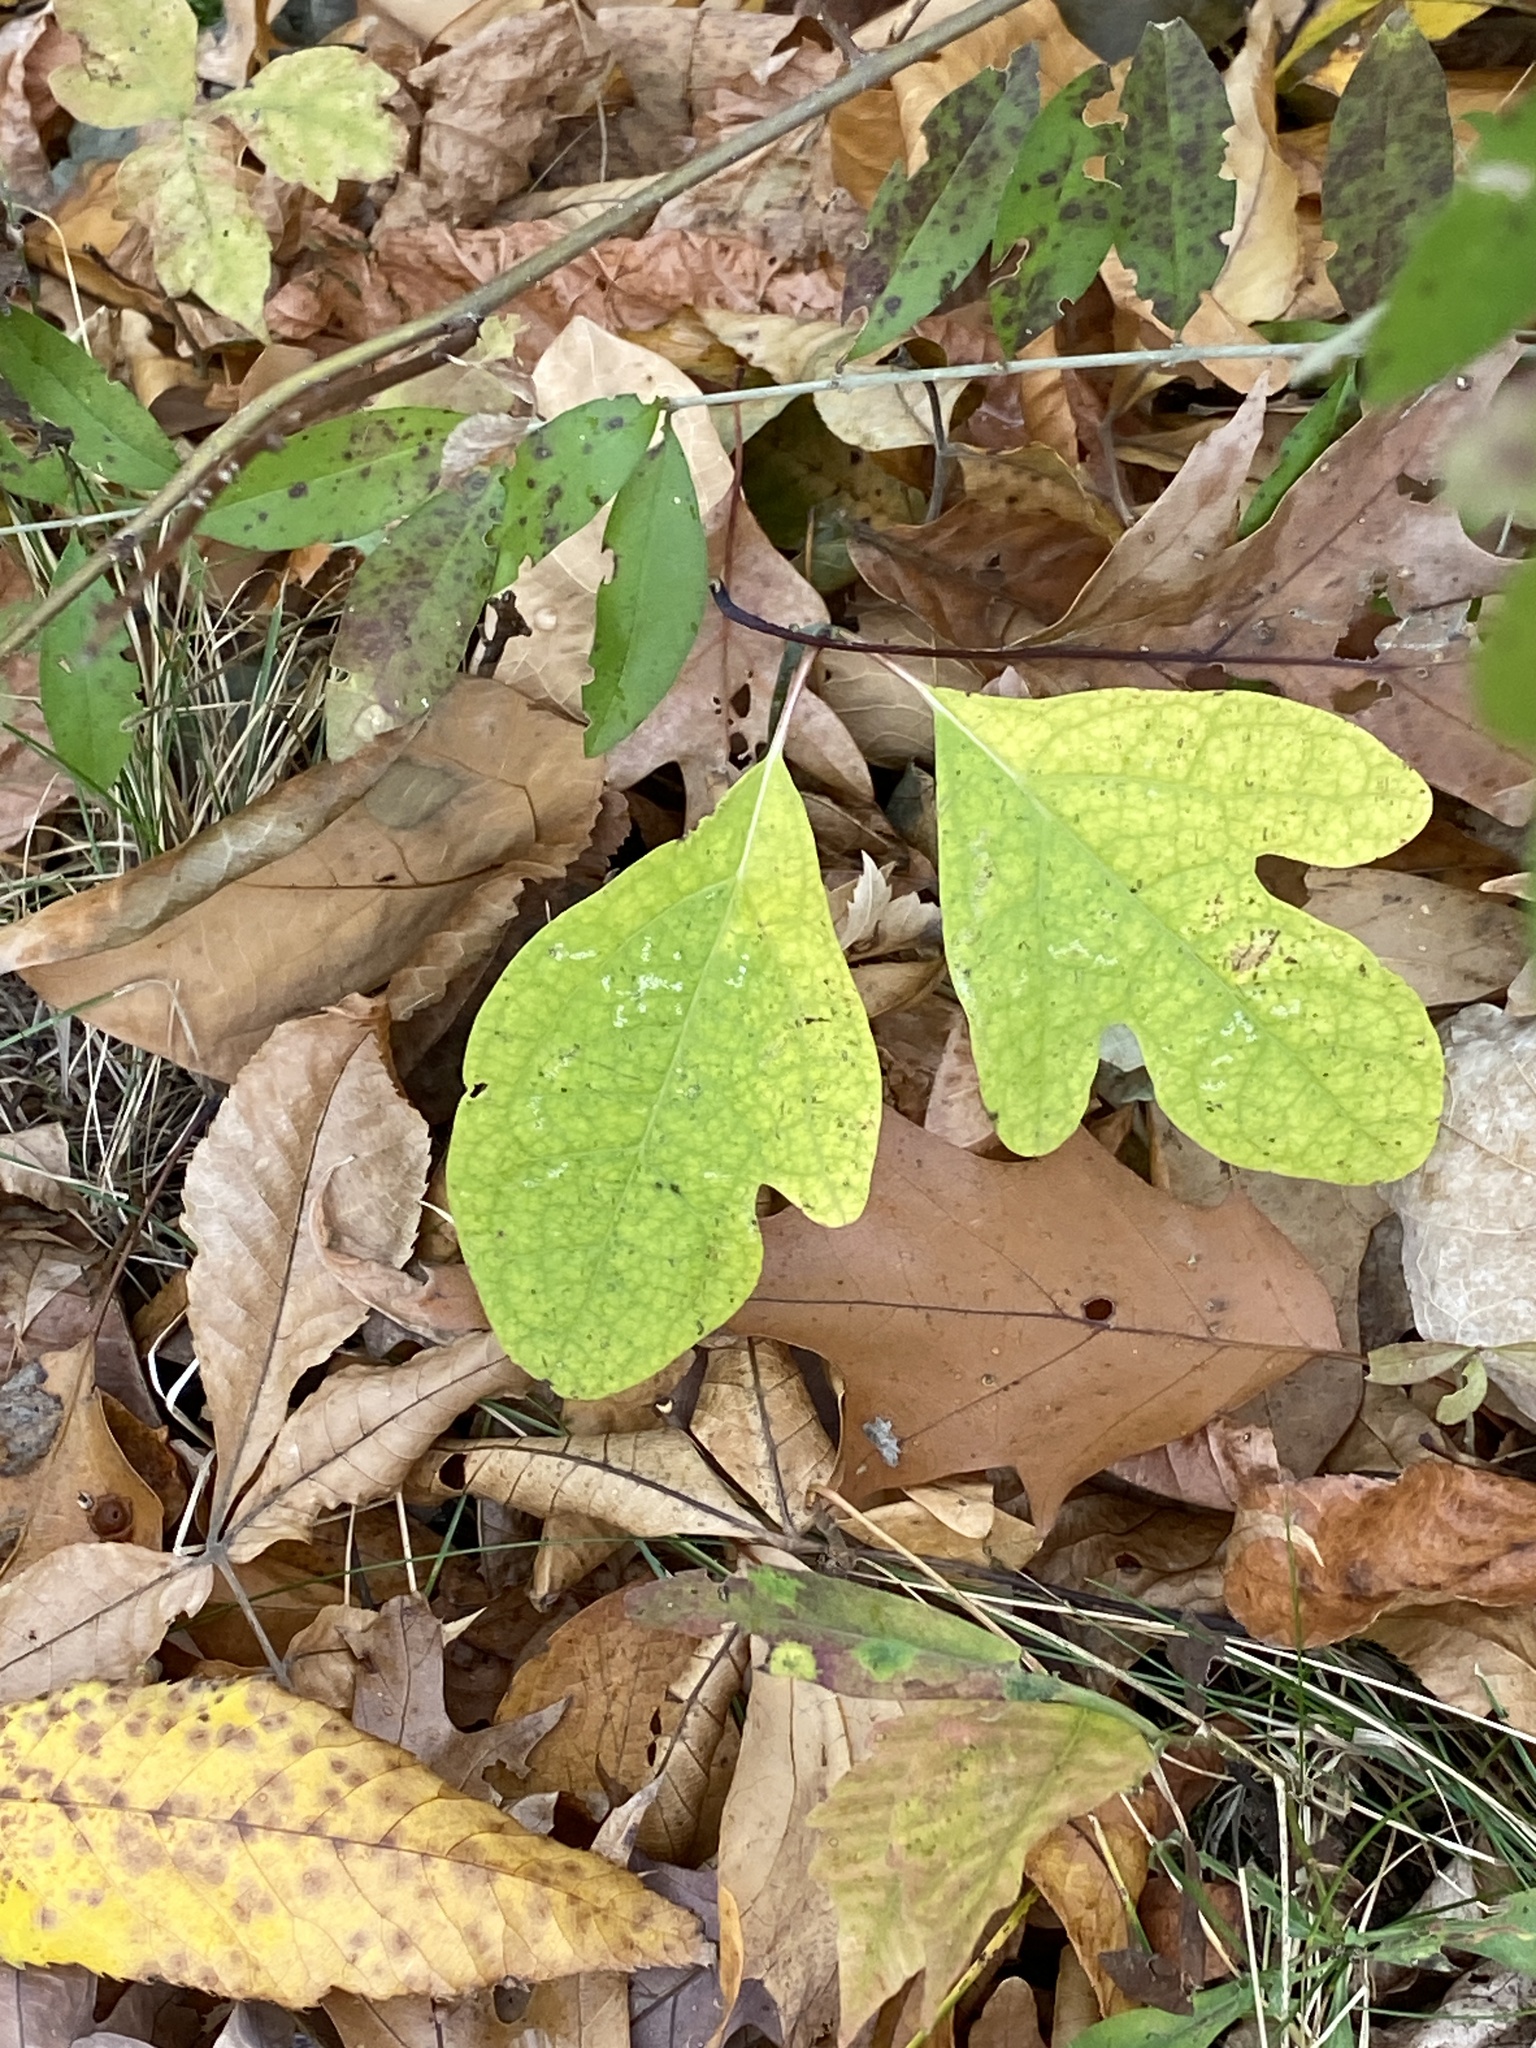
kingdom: Plantae
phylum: Tracheophyta
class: Magnoliopsida
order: Laurales
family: Lauraceae
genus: Sassafras
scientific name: Sassafras albidum
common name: Sassafras
